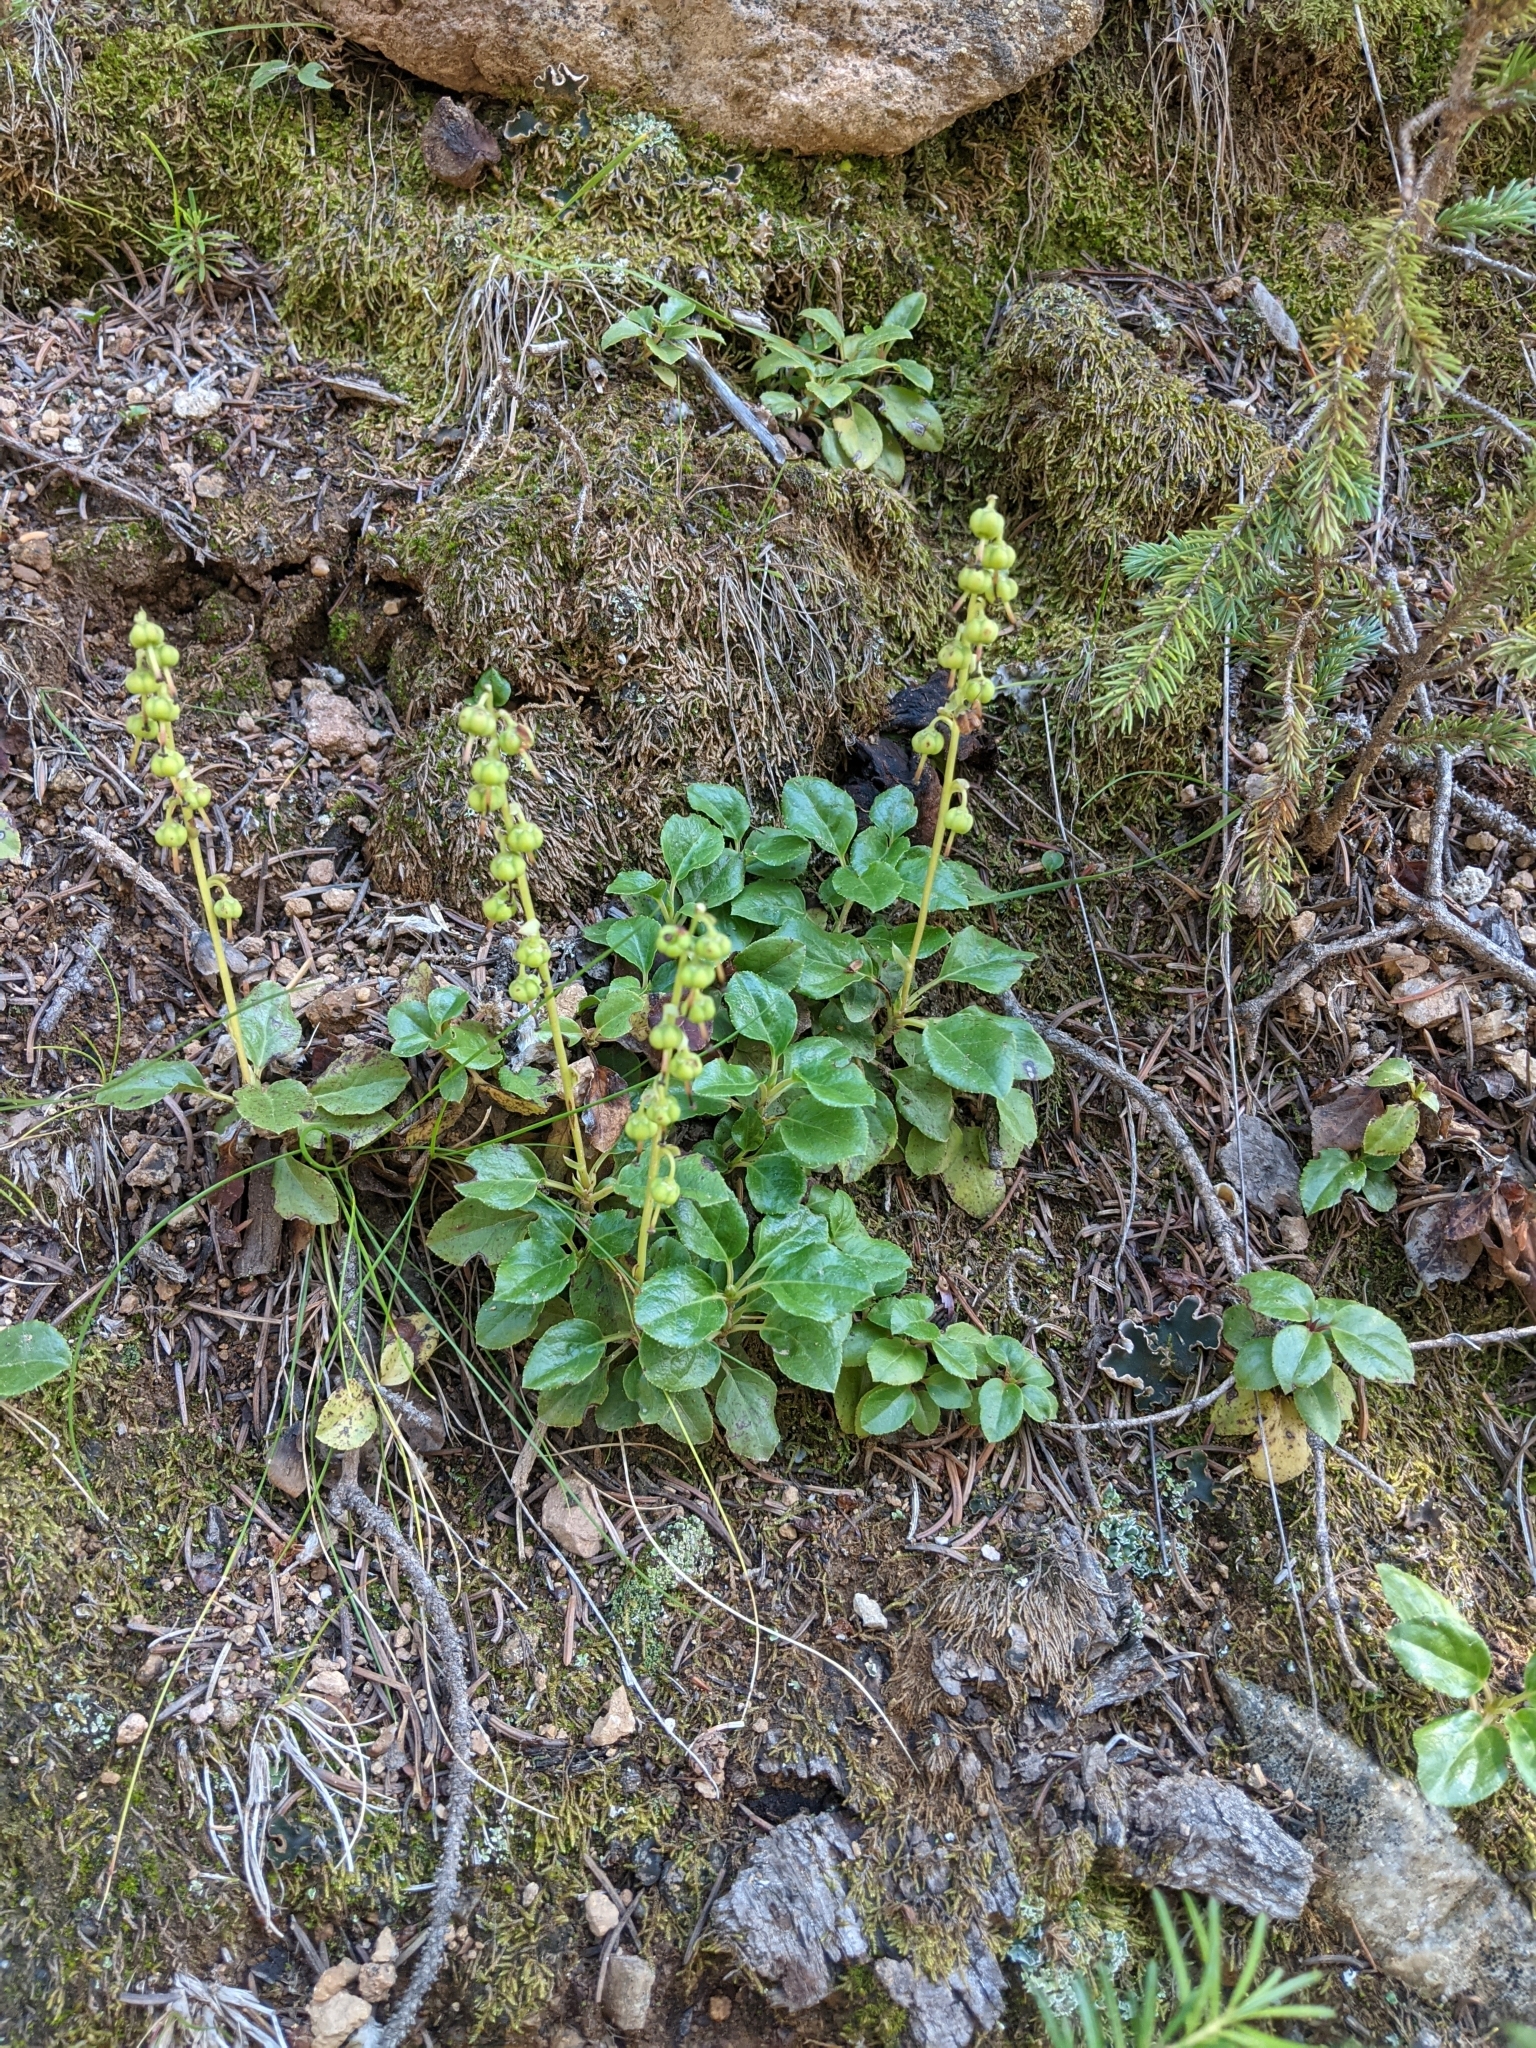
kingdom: Plantae
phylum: Tracheophyta
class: Magnoliopsida
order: Ericales
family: Ericaceae
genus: Orthilia
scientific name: Orthilia secunda
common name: One-sided orthilia
